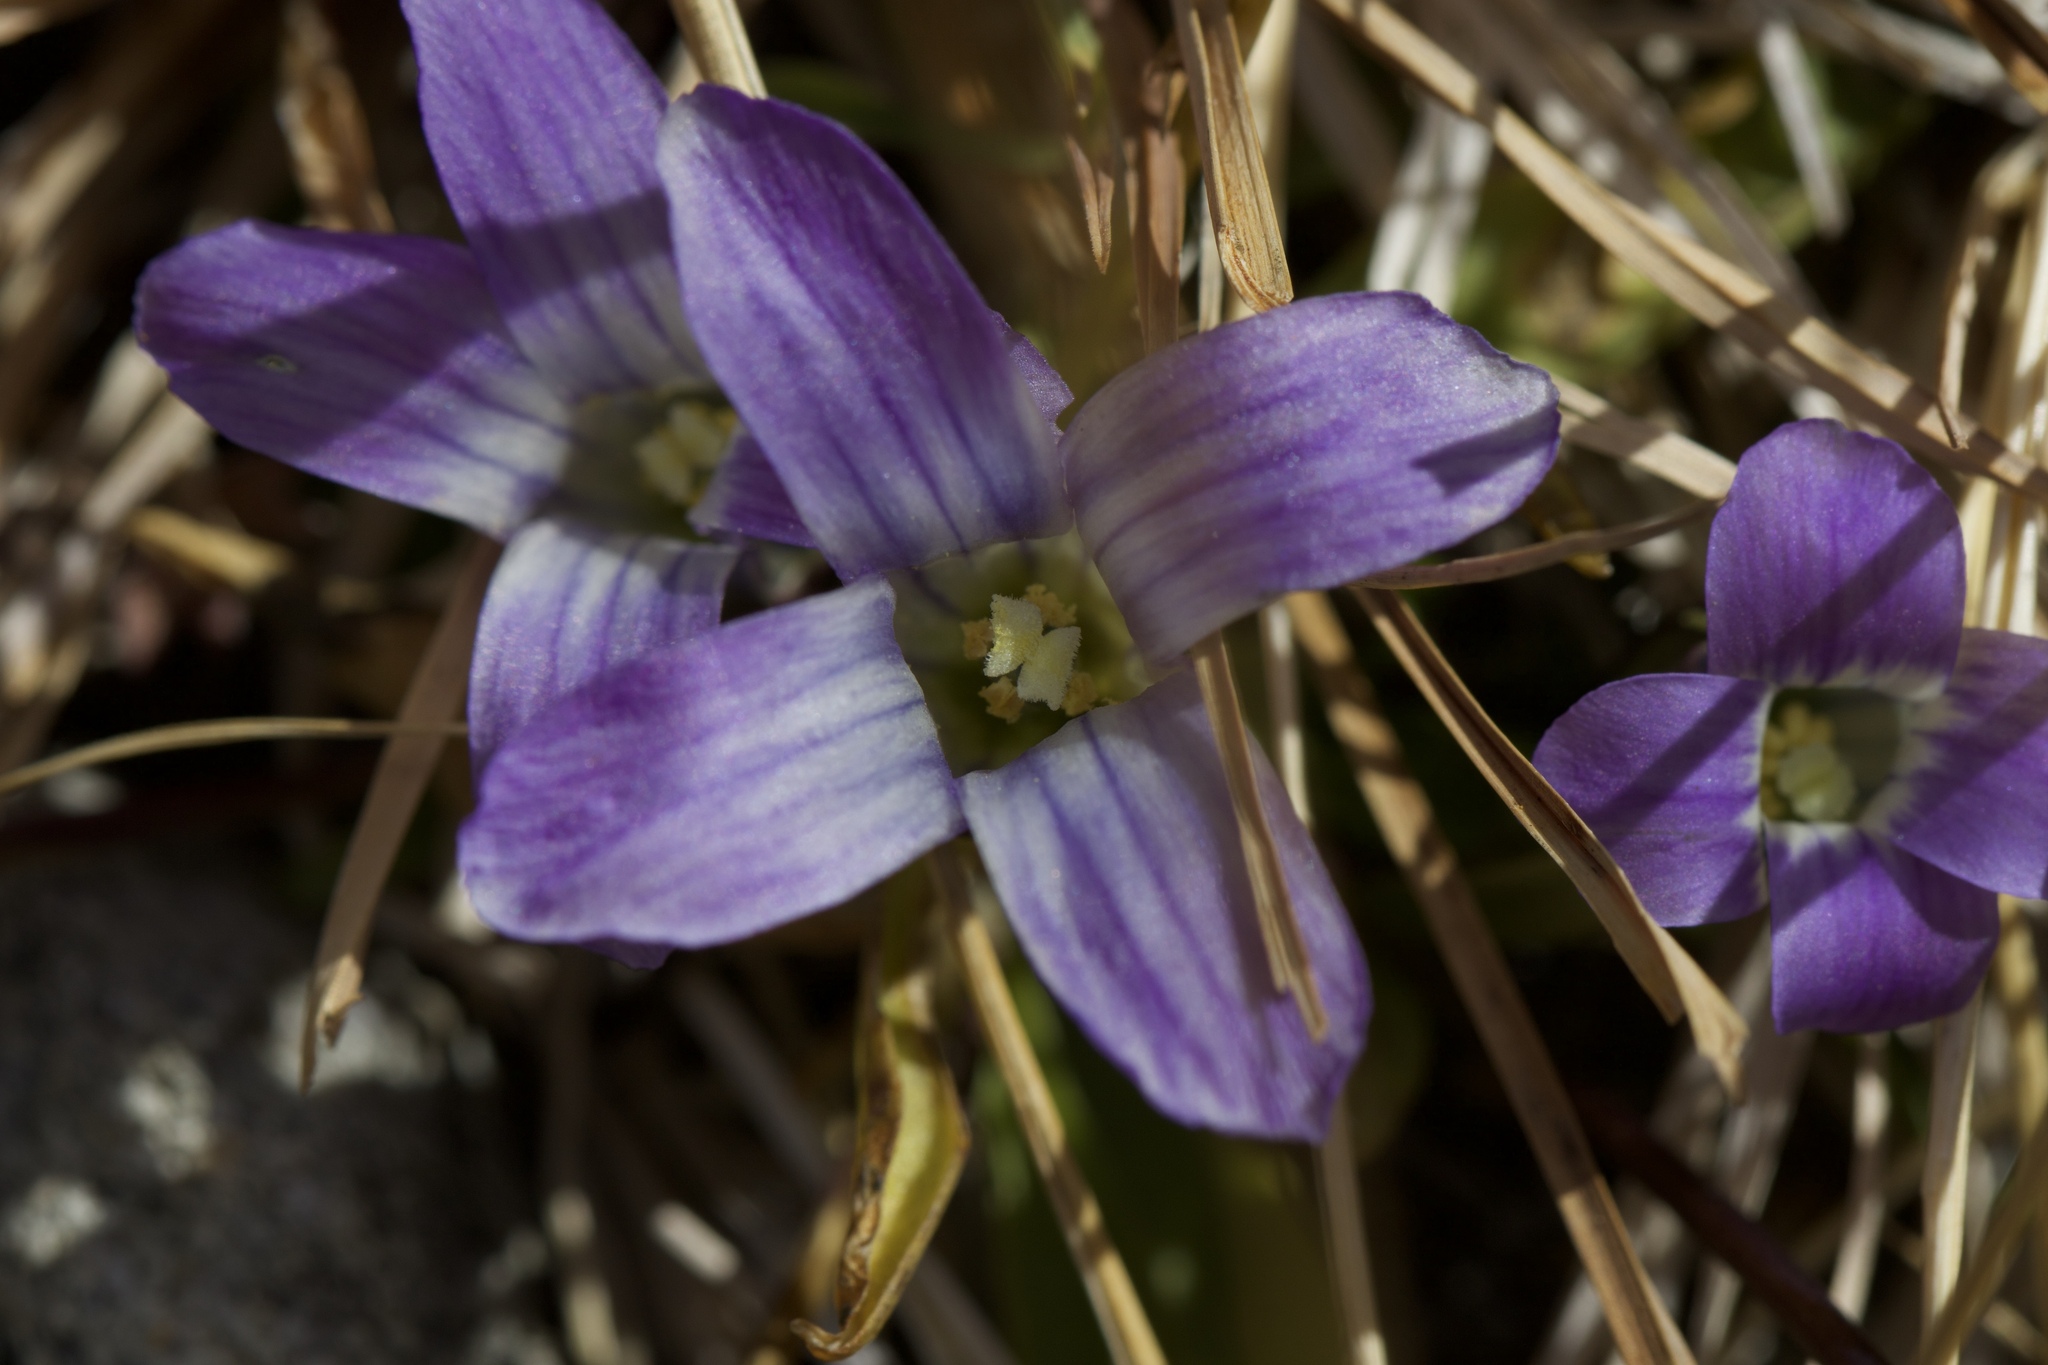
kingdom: Plantae
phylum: Tracheophyta
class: Magnoliopsida
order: Gentianales
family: Gentianaceae
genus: Gentianopsis
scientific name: Gentianopsis holopetala
